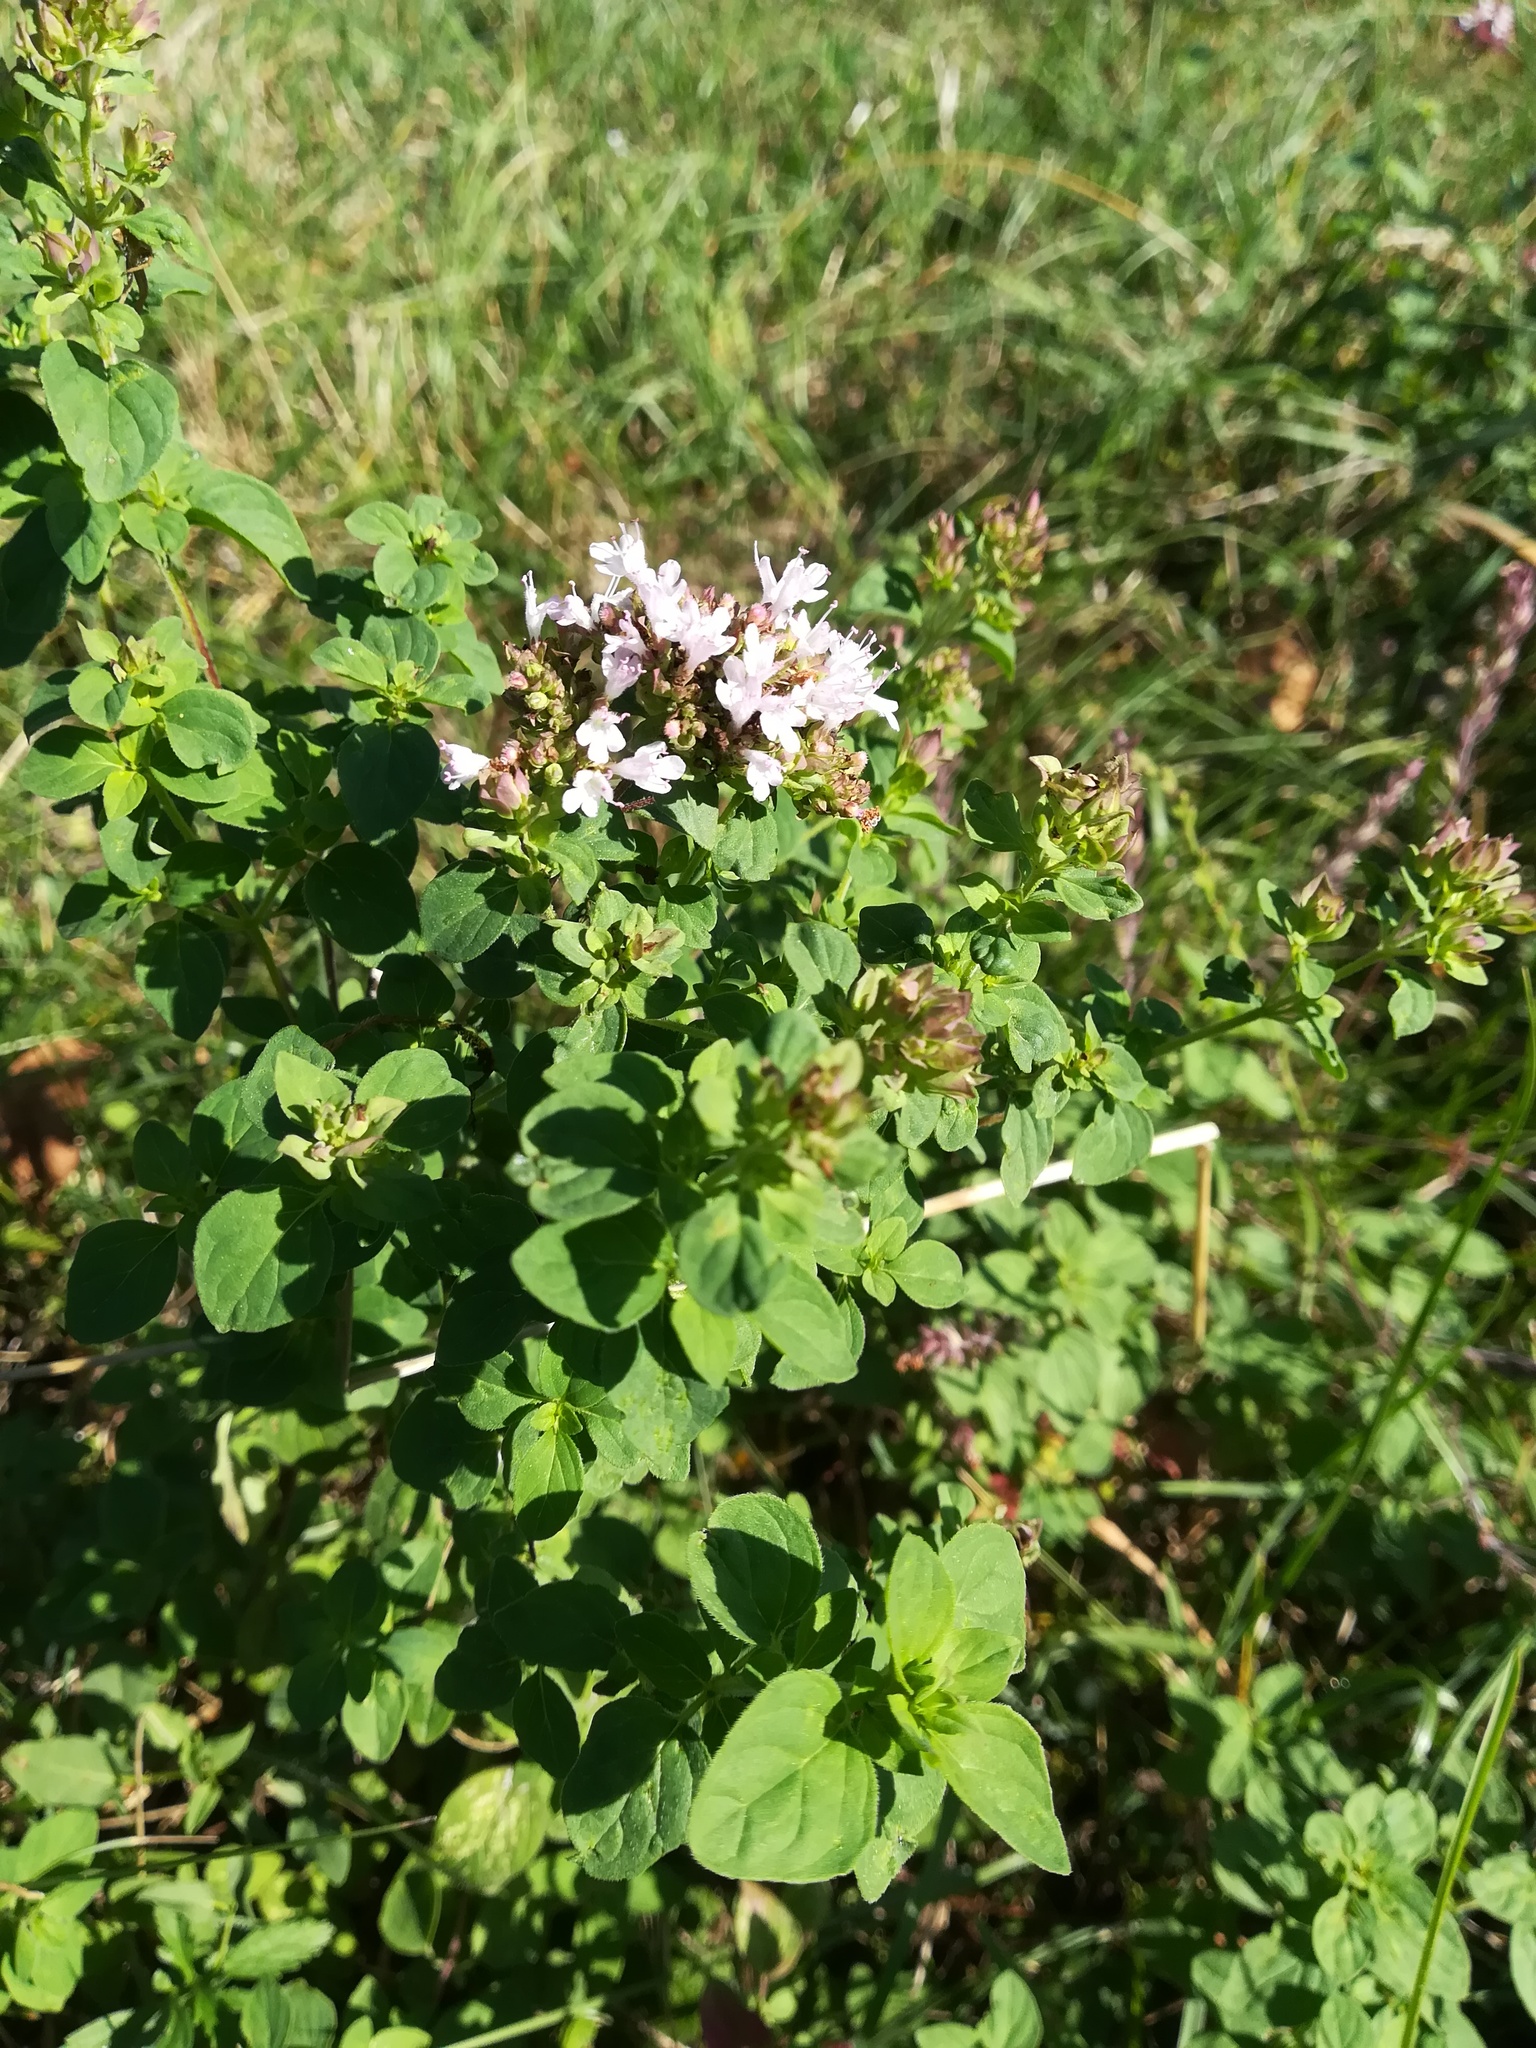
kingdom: Plantae
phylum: Tracheophyta
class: Magnoliopsida
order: Lamiales
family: Lamiaceae
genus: Origanum
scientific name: Origanum vulgare
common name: Wild marjoram
